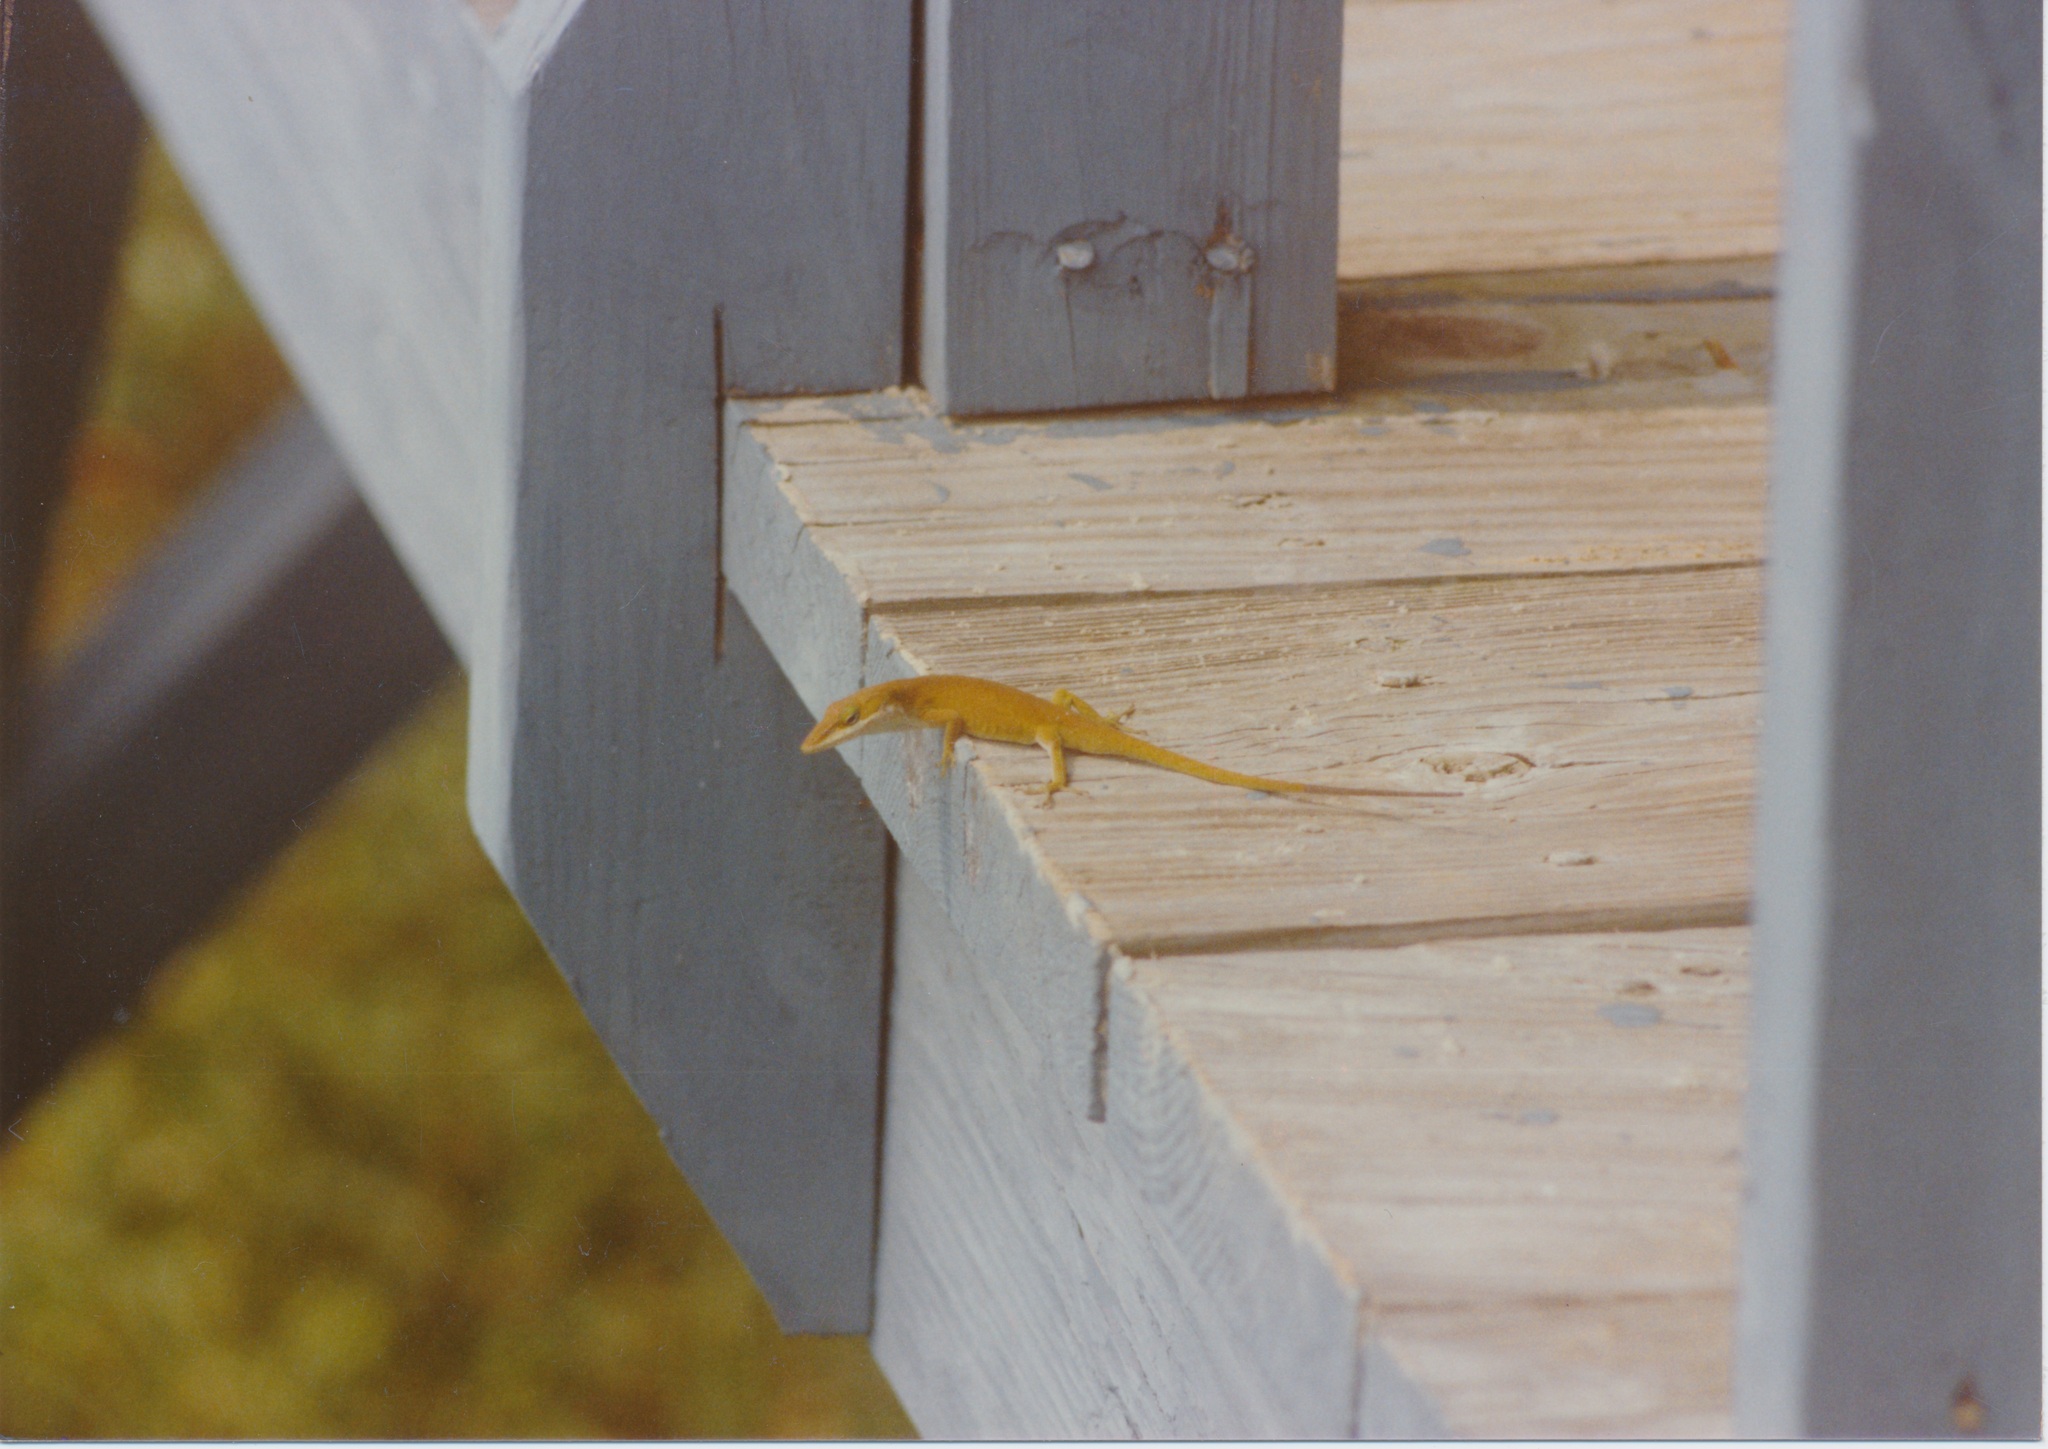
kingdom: Animalia
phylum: Chordata
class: Squamata
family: Dactyloidae
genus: Anolis
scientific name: Anolis carolinensis
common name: Green anole
